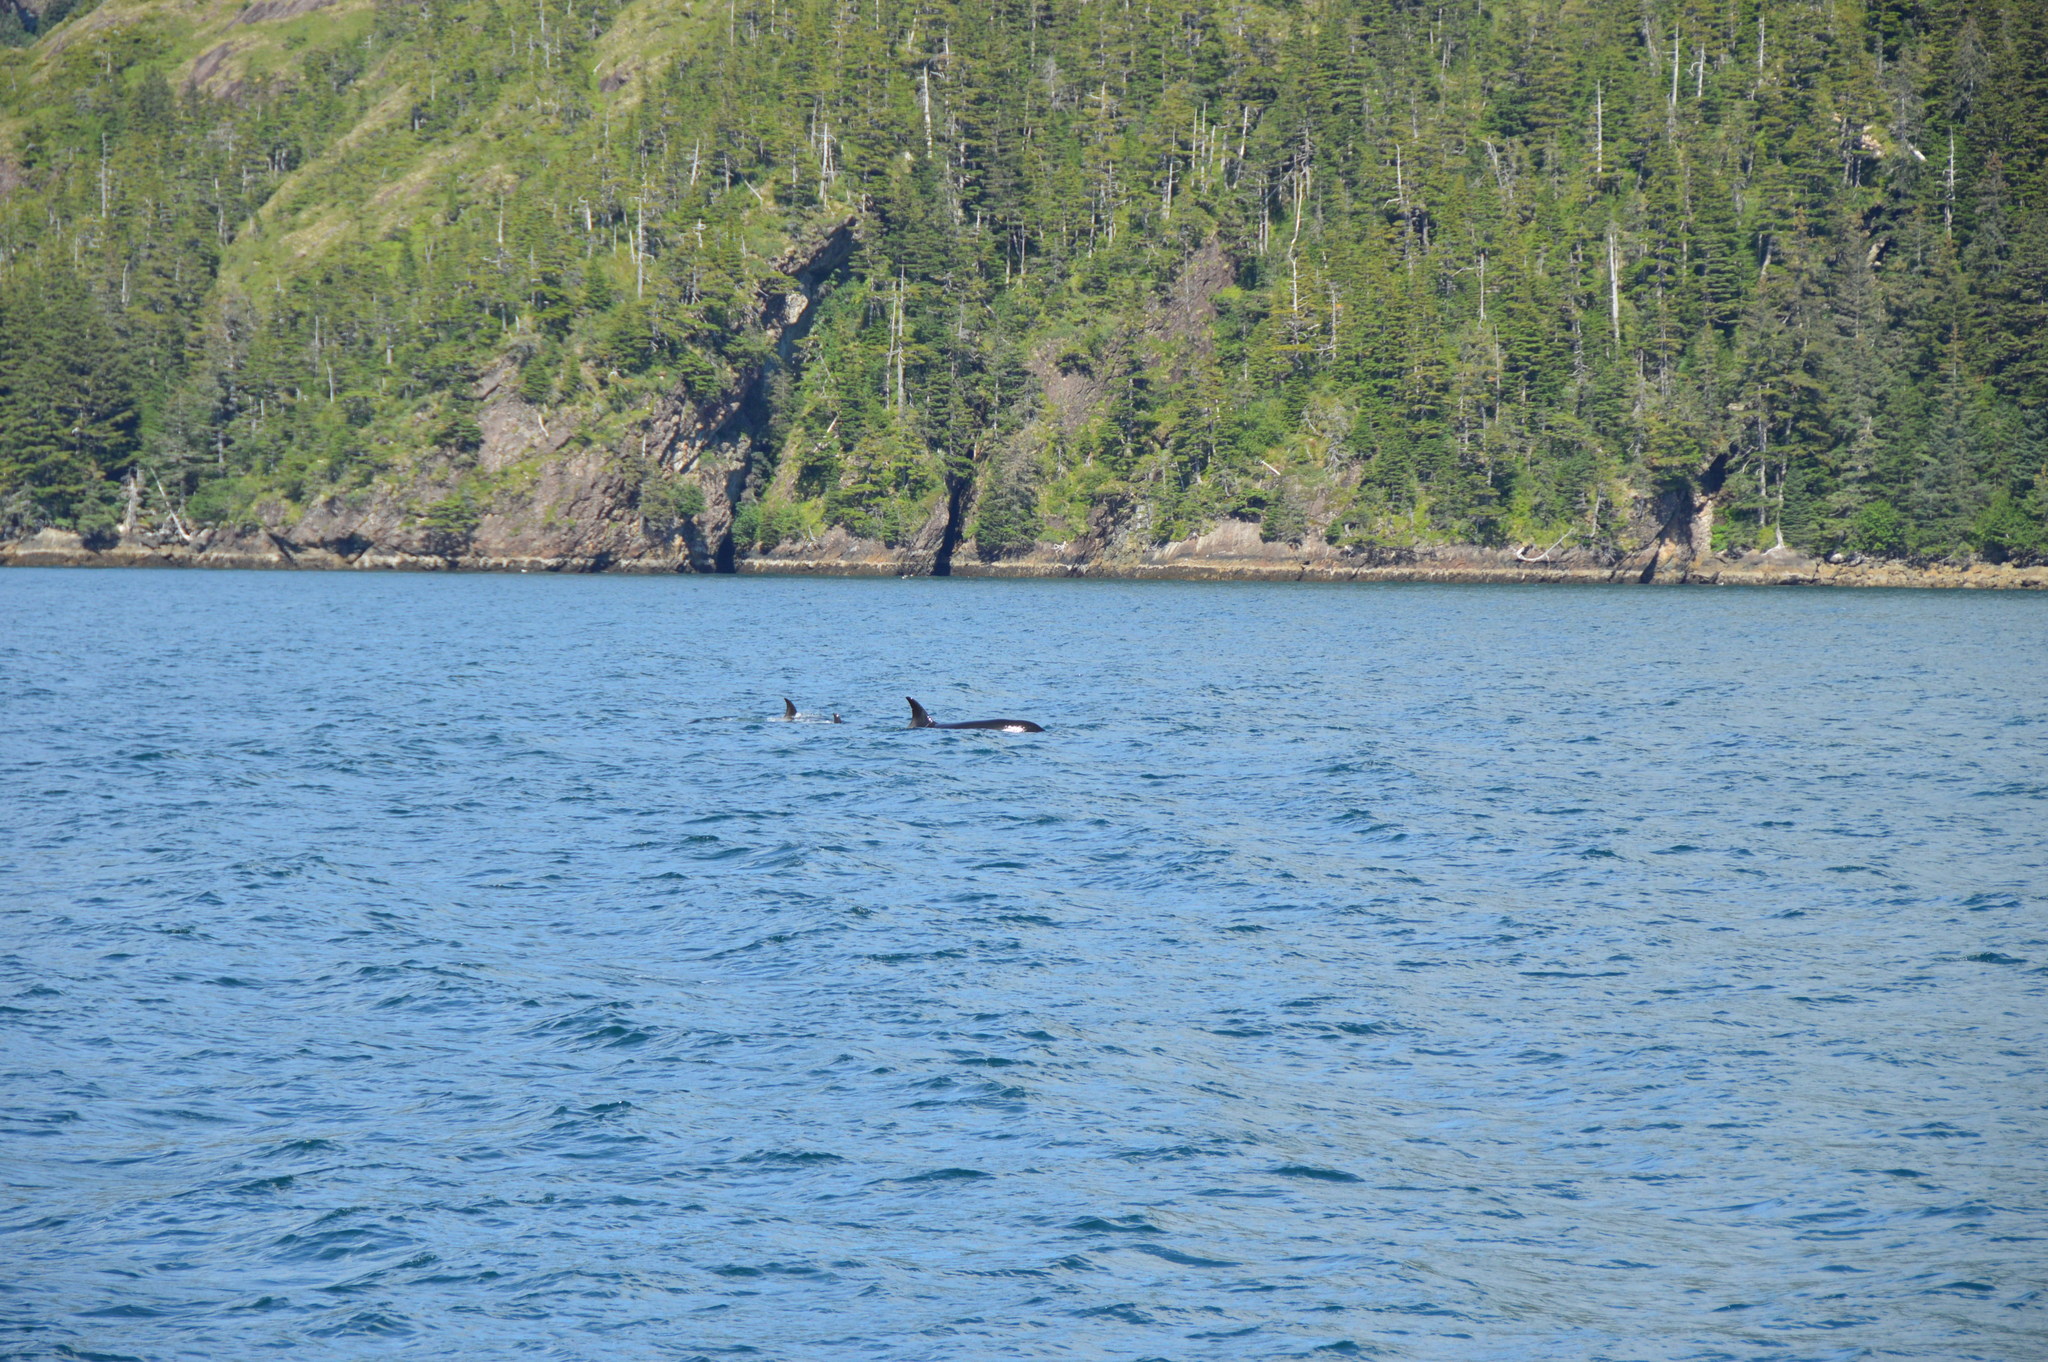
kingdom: Animalia
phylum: Chordata
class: Mammalia
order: Cetacea
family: Delphinidae
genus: Orcinus
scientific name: Orcinus orca
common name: Killer whale
